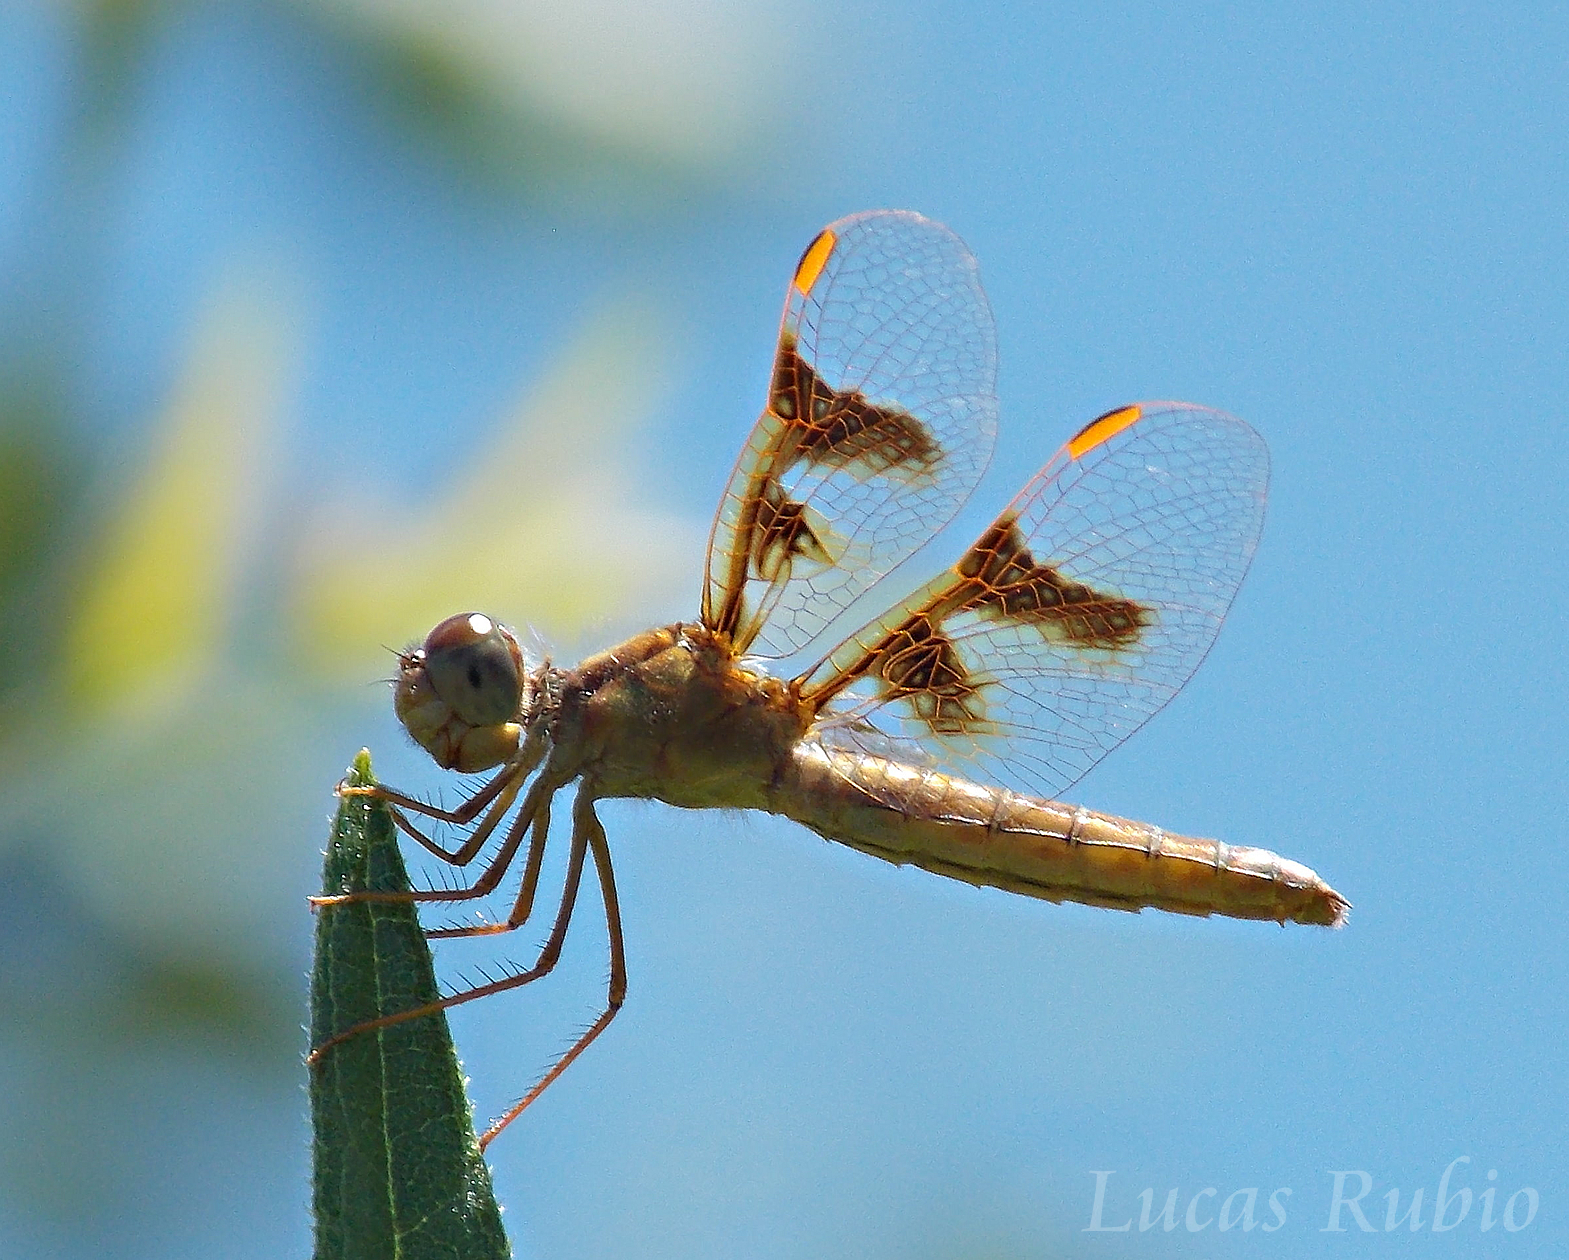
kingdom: Animalia
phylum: Arthropoda
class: Insecta
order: Odonata
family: Libellulidae
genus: Perithemis
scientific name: Perithemis tenera
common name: Eastern amberwing
